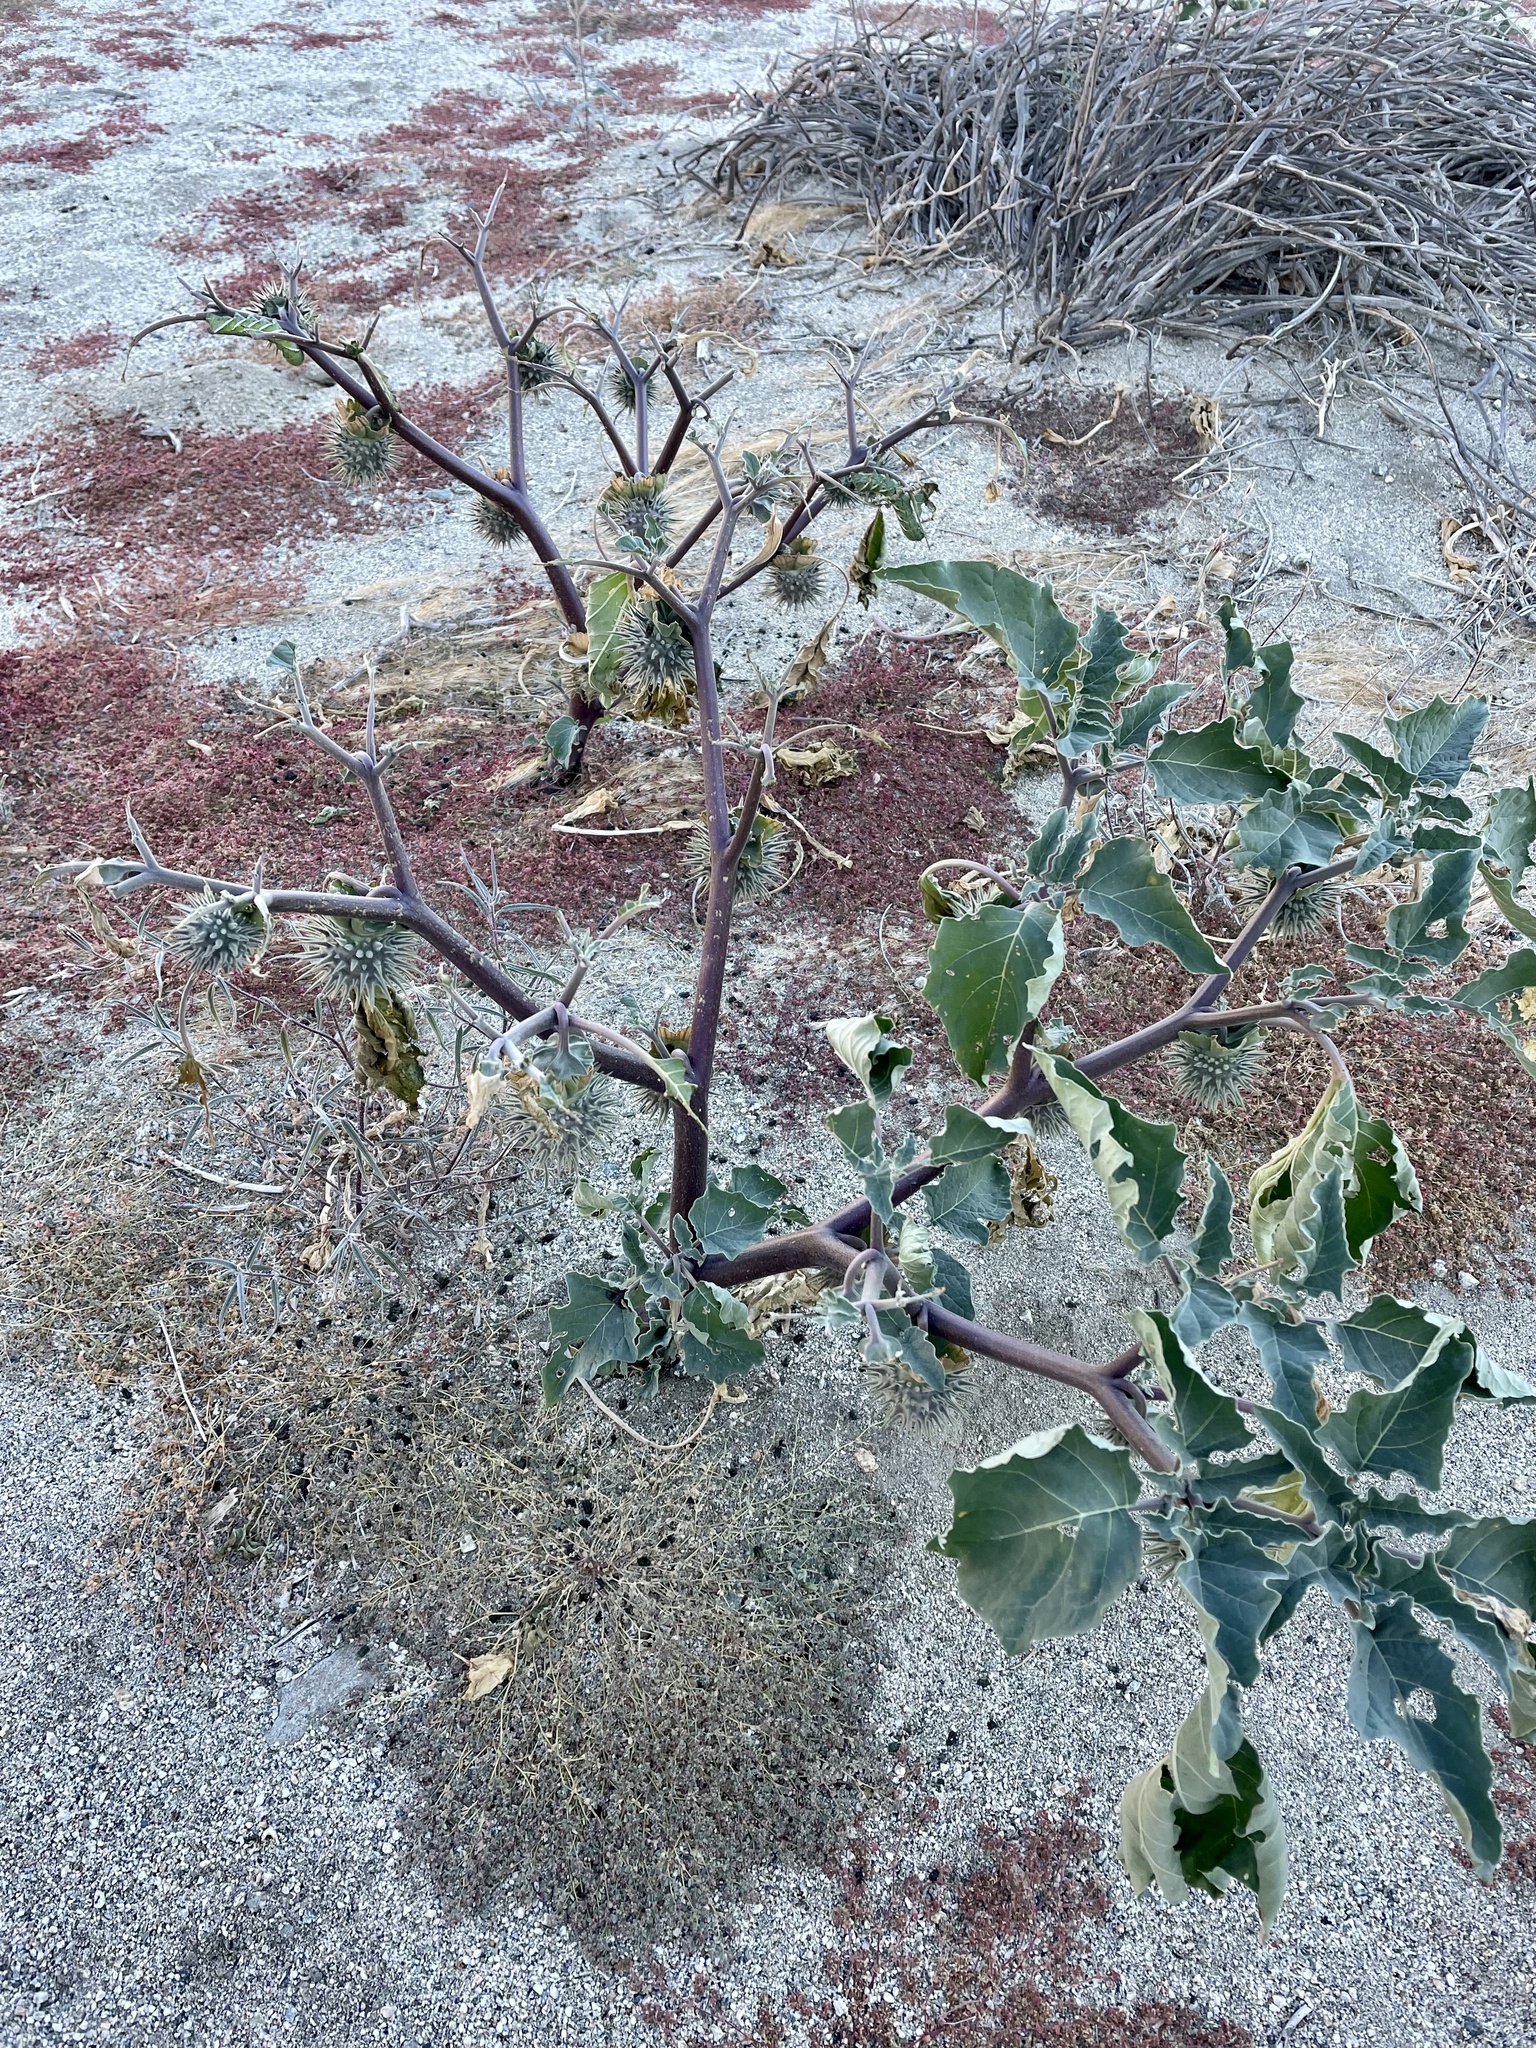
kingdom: Animalia
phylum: Arthropoda
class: Insecta
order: Lepidoptera
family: Sphingidae
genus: Manduca
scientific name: Manduca sexta
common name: Carolina sphinx
